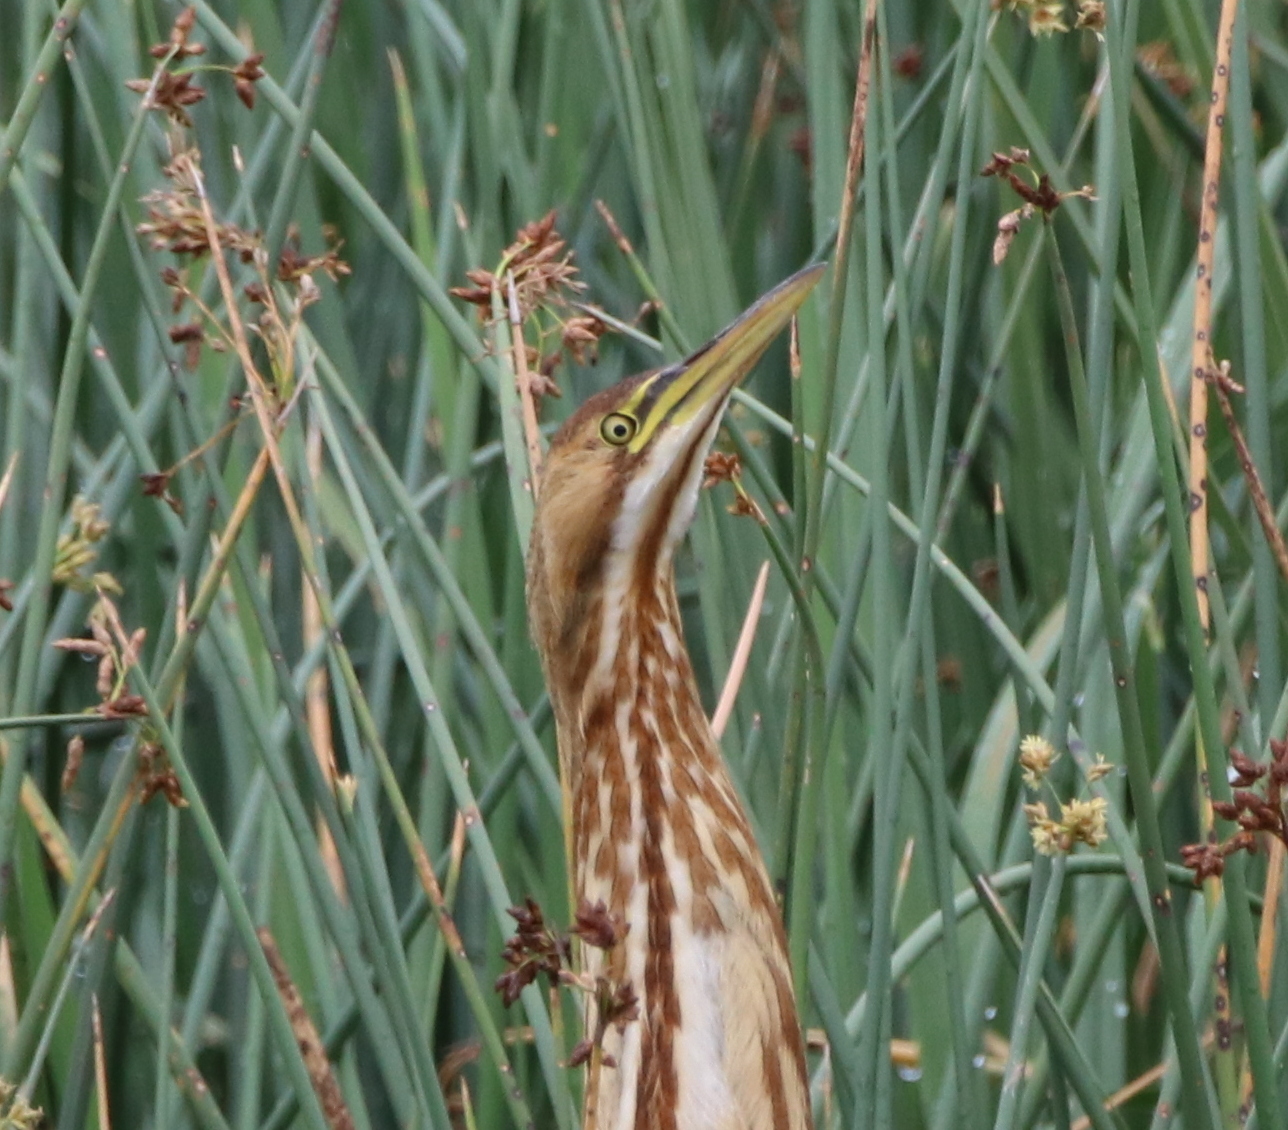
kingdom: Animalia
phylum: Chordata
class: Aves
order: Pelecaniformes
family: Ardeidae
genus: Botaurus
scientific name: Botaurus lentiginosus
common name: American bittern
